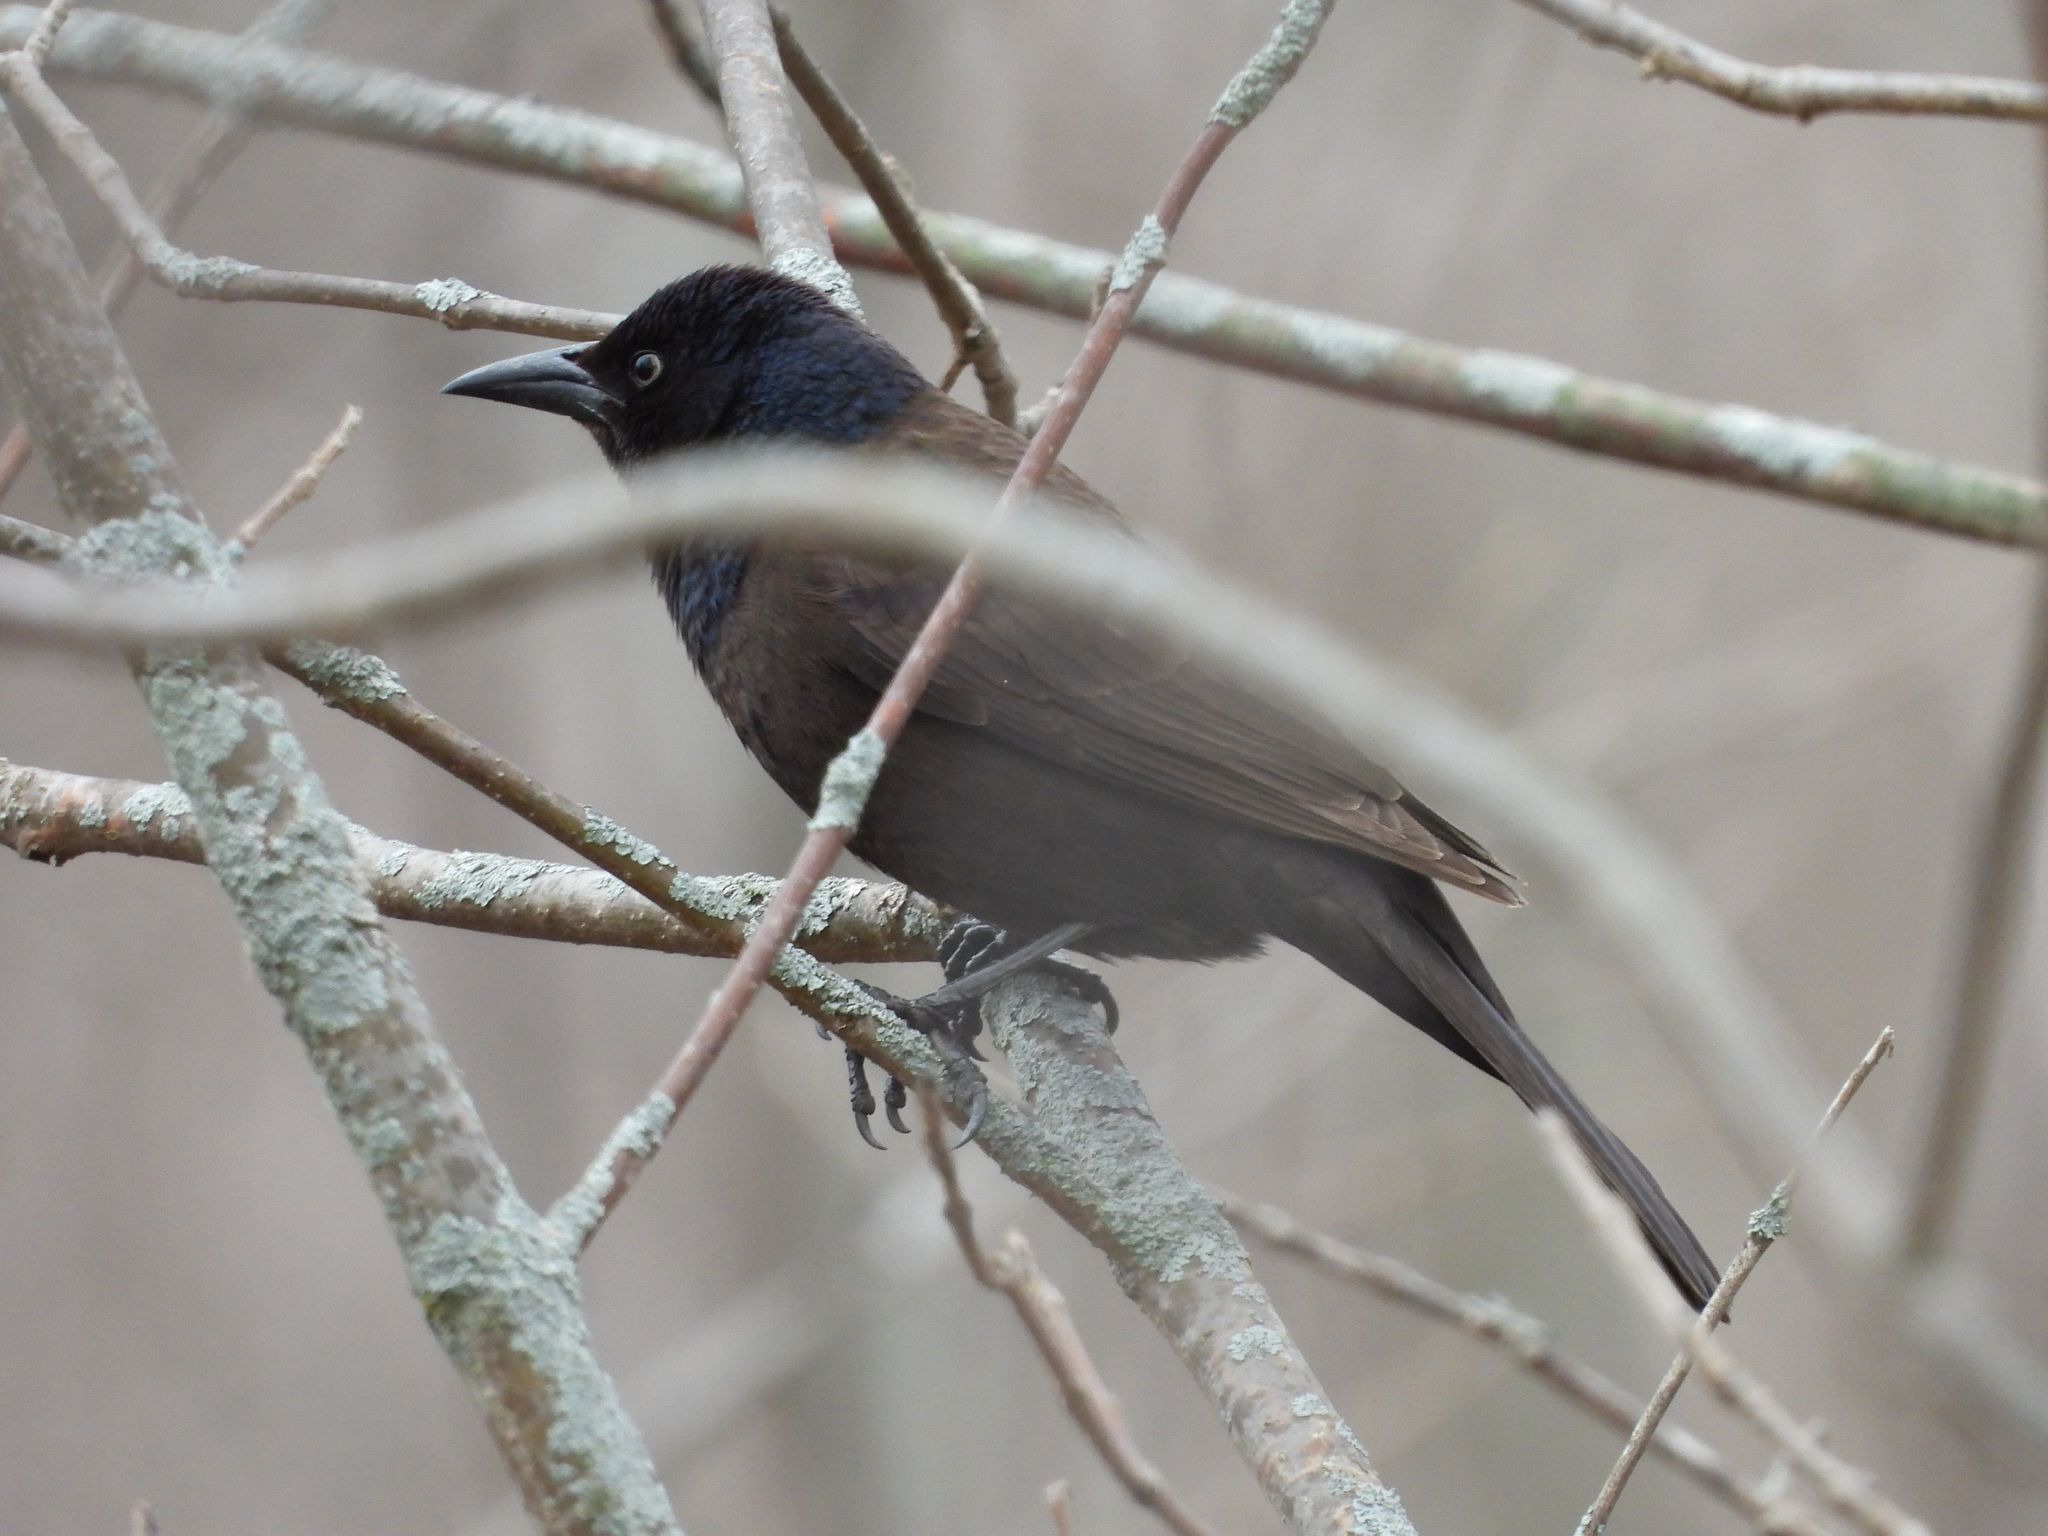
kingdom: Animalia
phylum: Chordata
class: Aves
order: Passeriformes
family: Icteridae
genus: Quiscalus
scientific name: Quiscalus quiscula
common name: Common grackle
